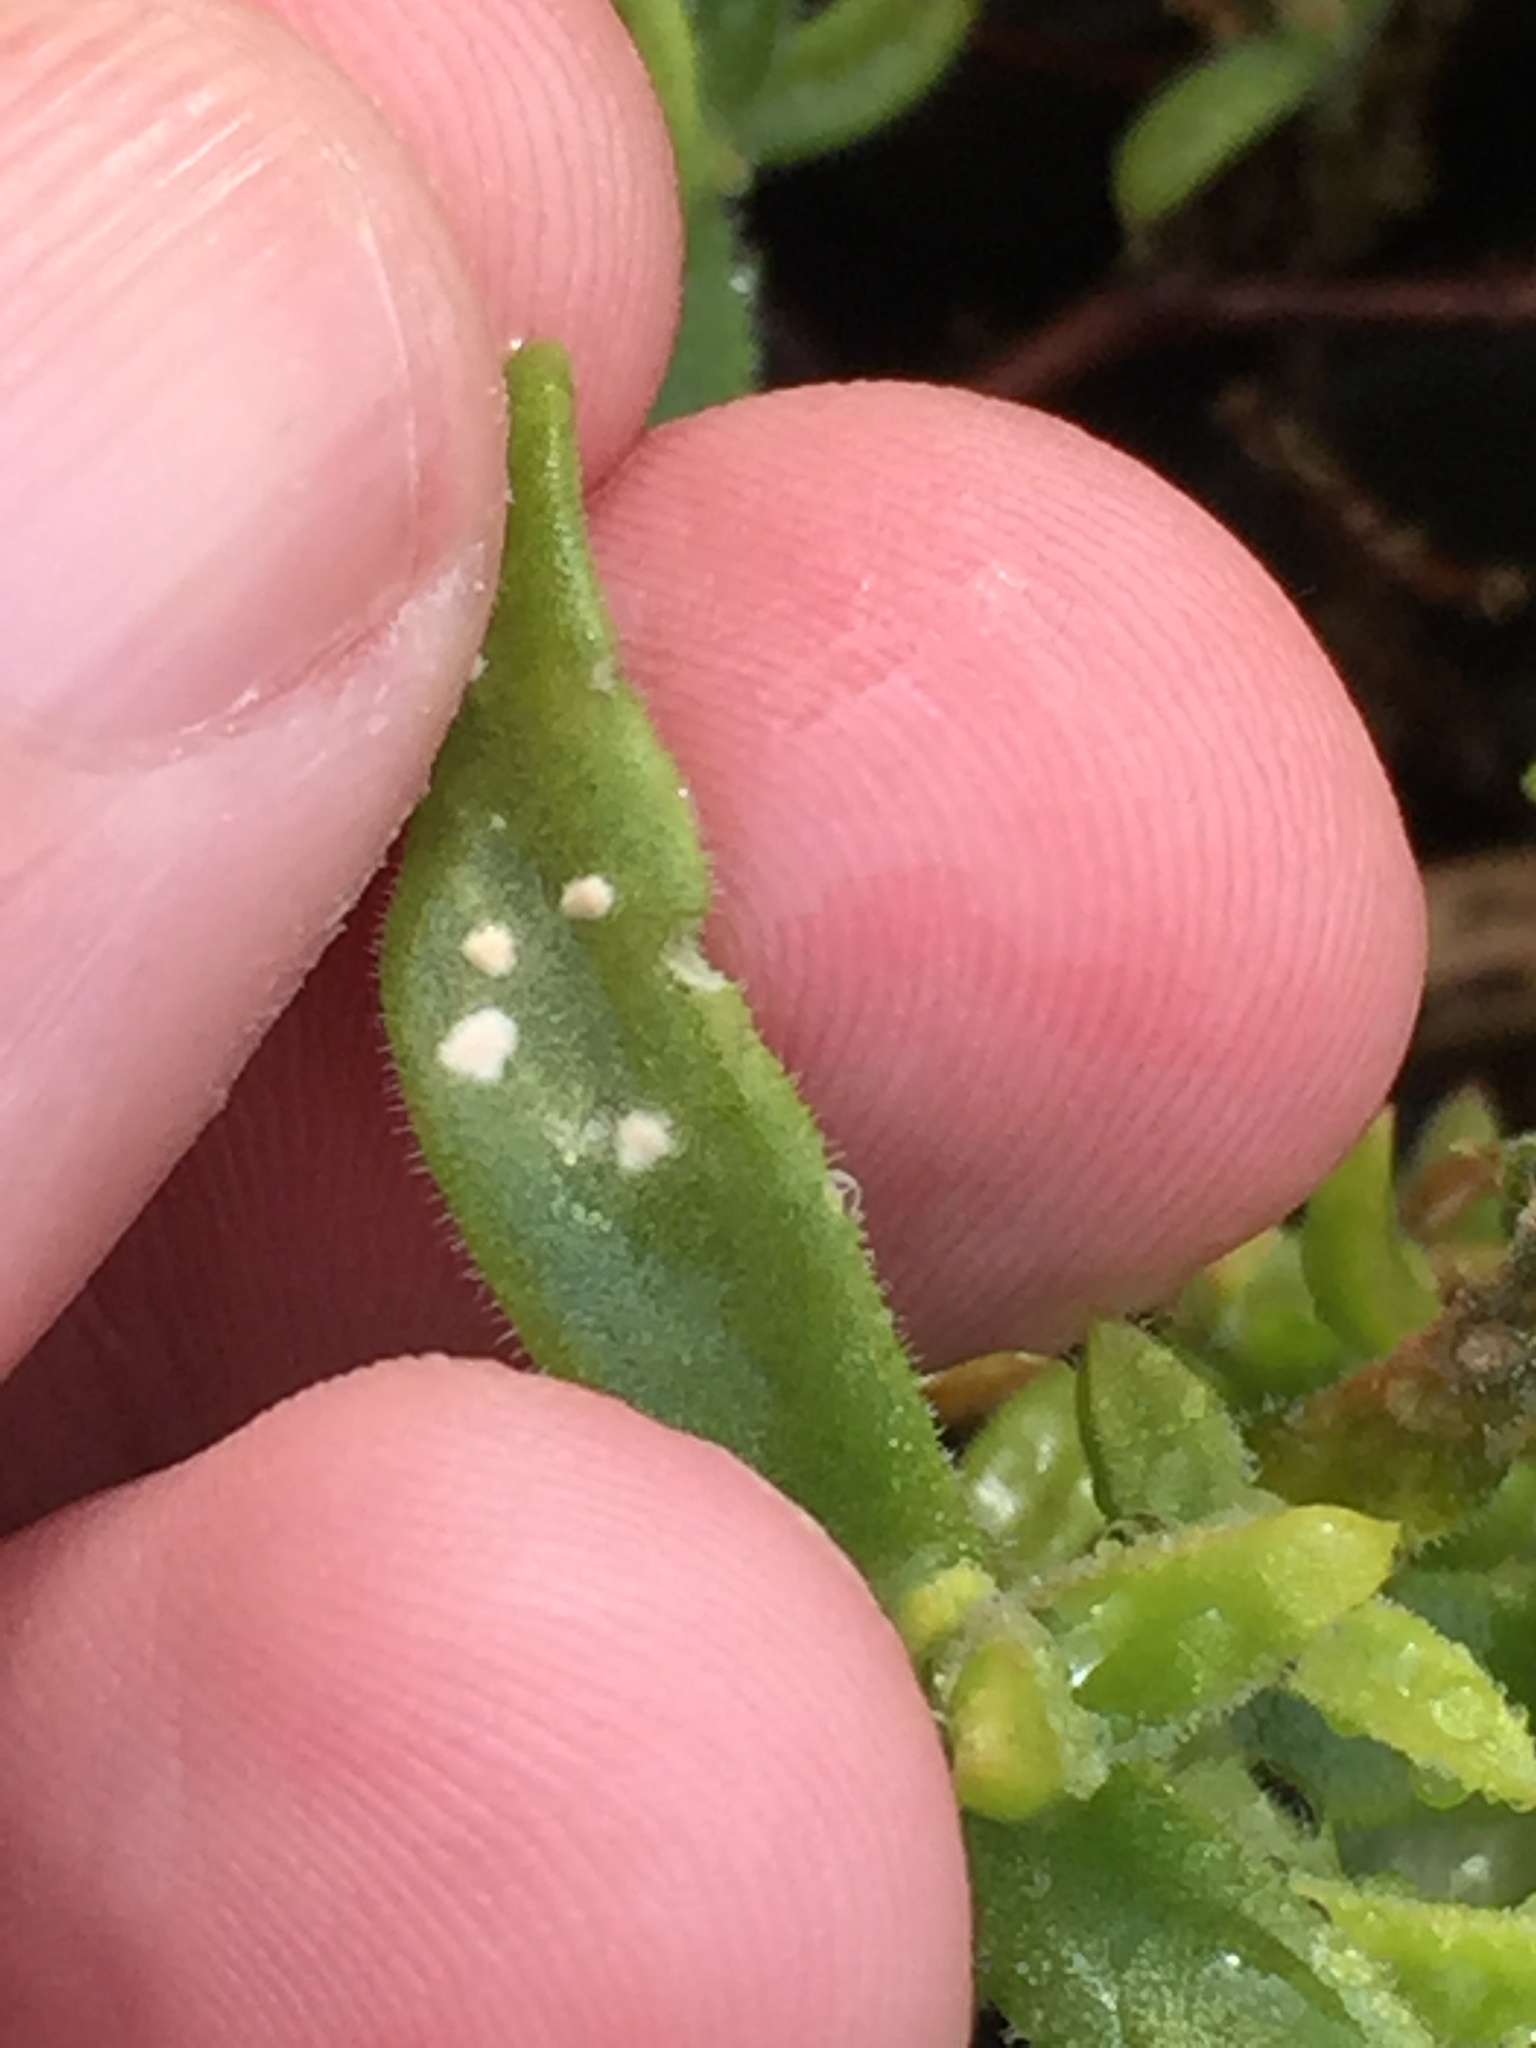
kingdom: Chromista
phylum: Oomycota
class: Peronosporea
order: Albuginales
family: Albuginaceae
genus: Albugo
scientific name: Albugo trianthemae
